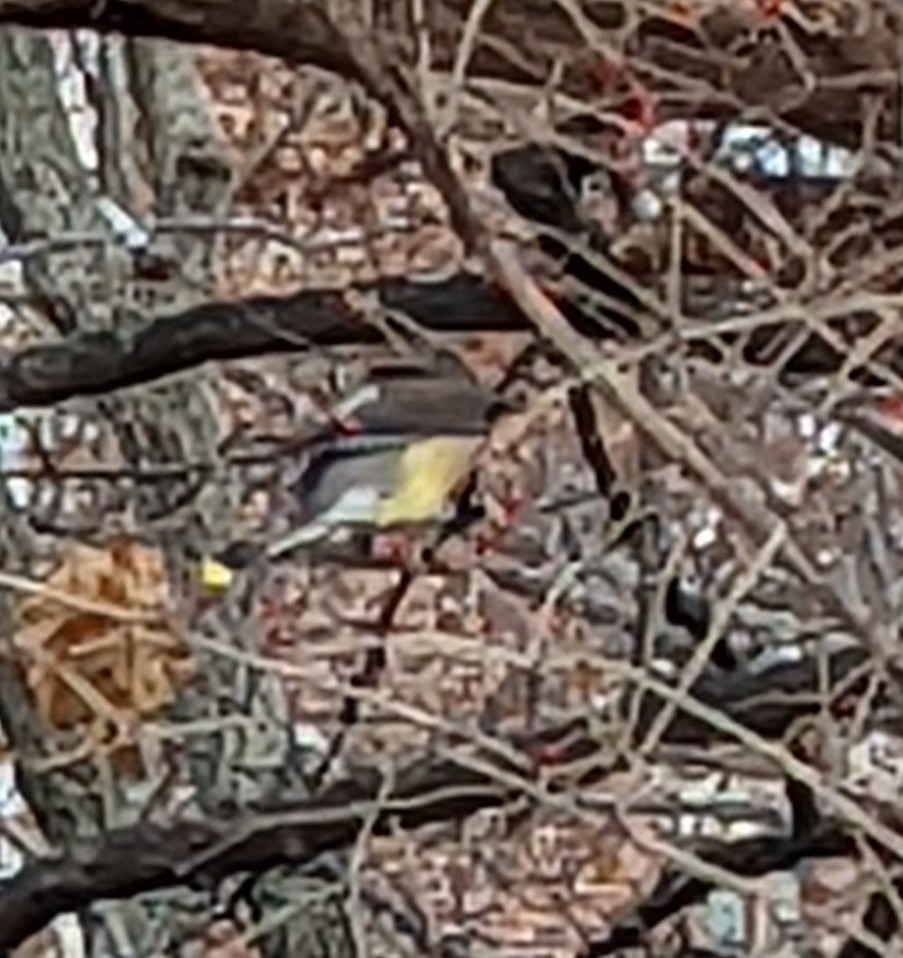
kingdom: Animalia
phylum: Chordata
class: Aves
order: Passeriformes
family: Bombycillidae
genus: Bombycilla
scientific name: Bombycilla cedrorum
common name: Cedar waxwing
